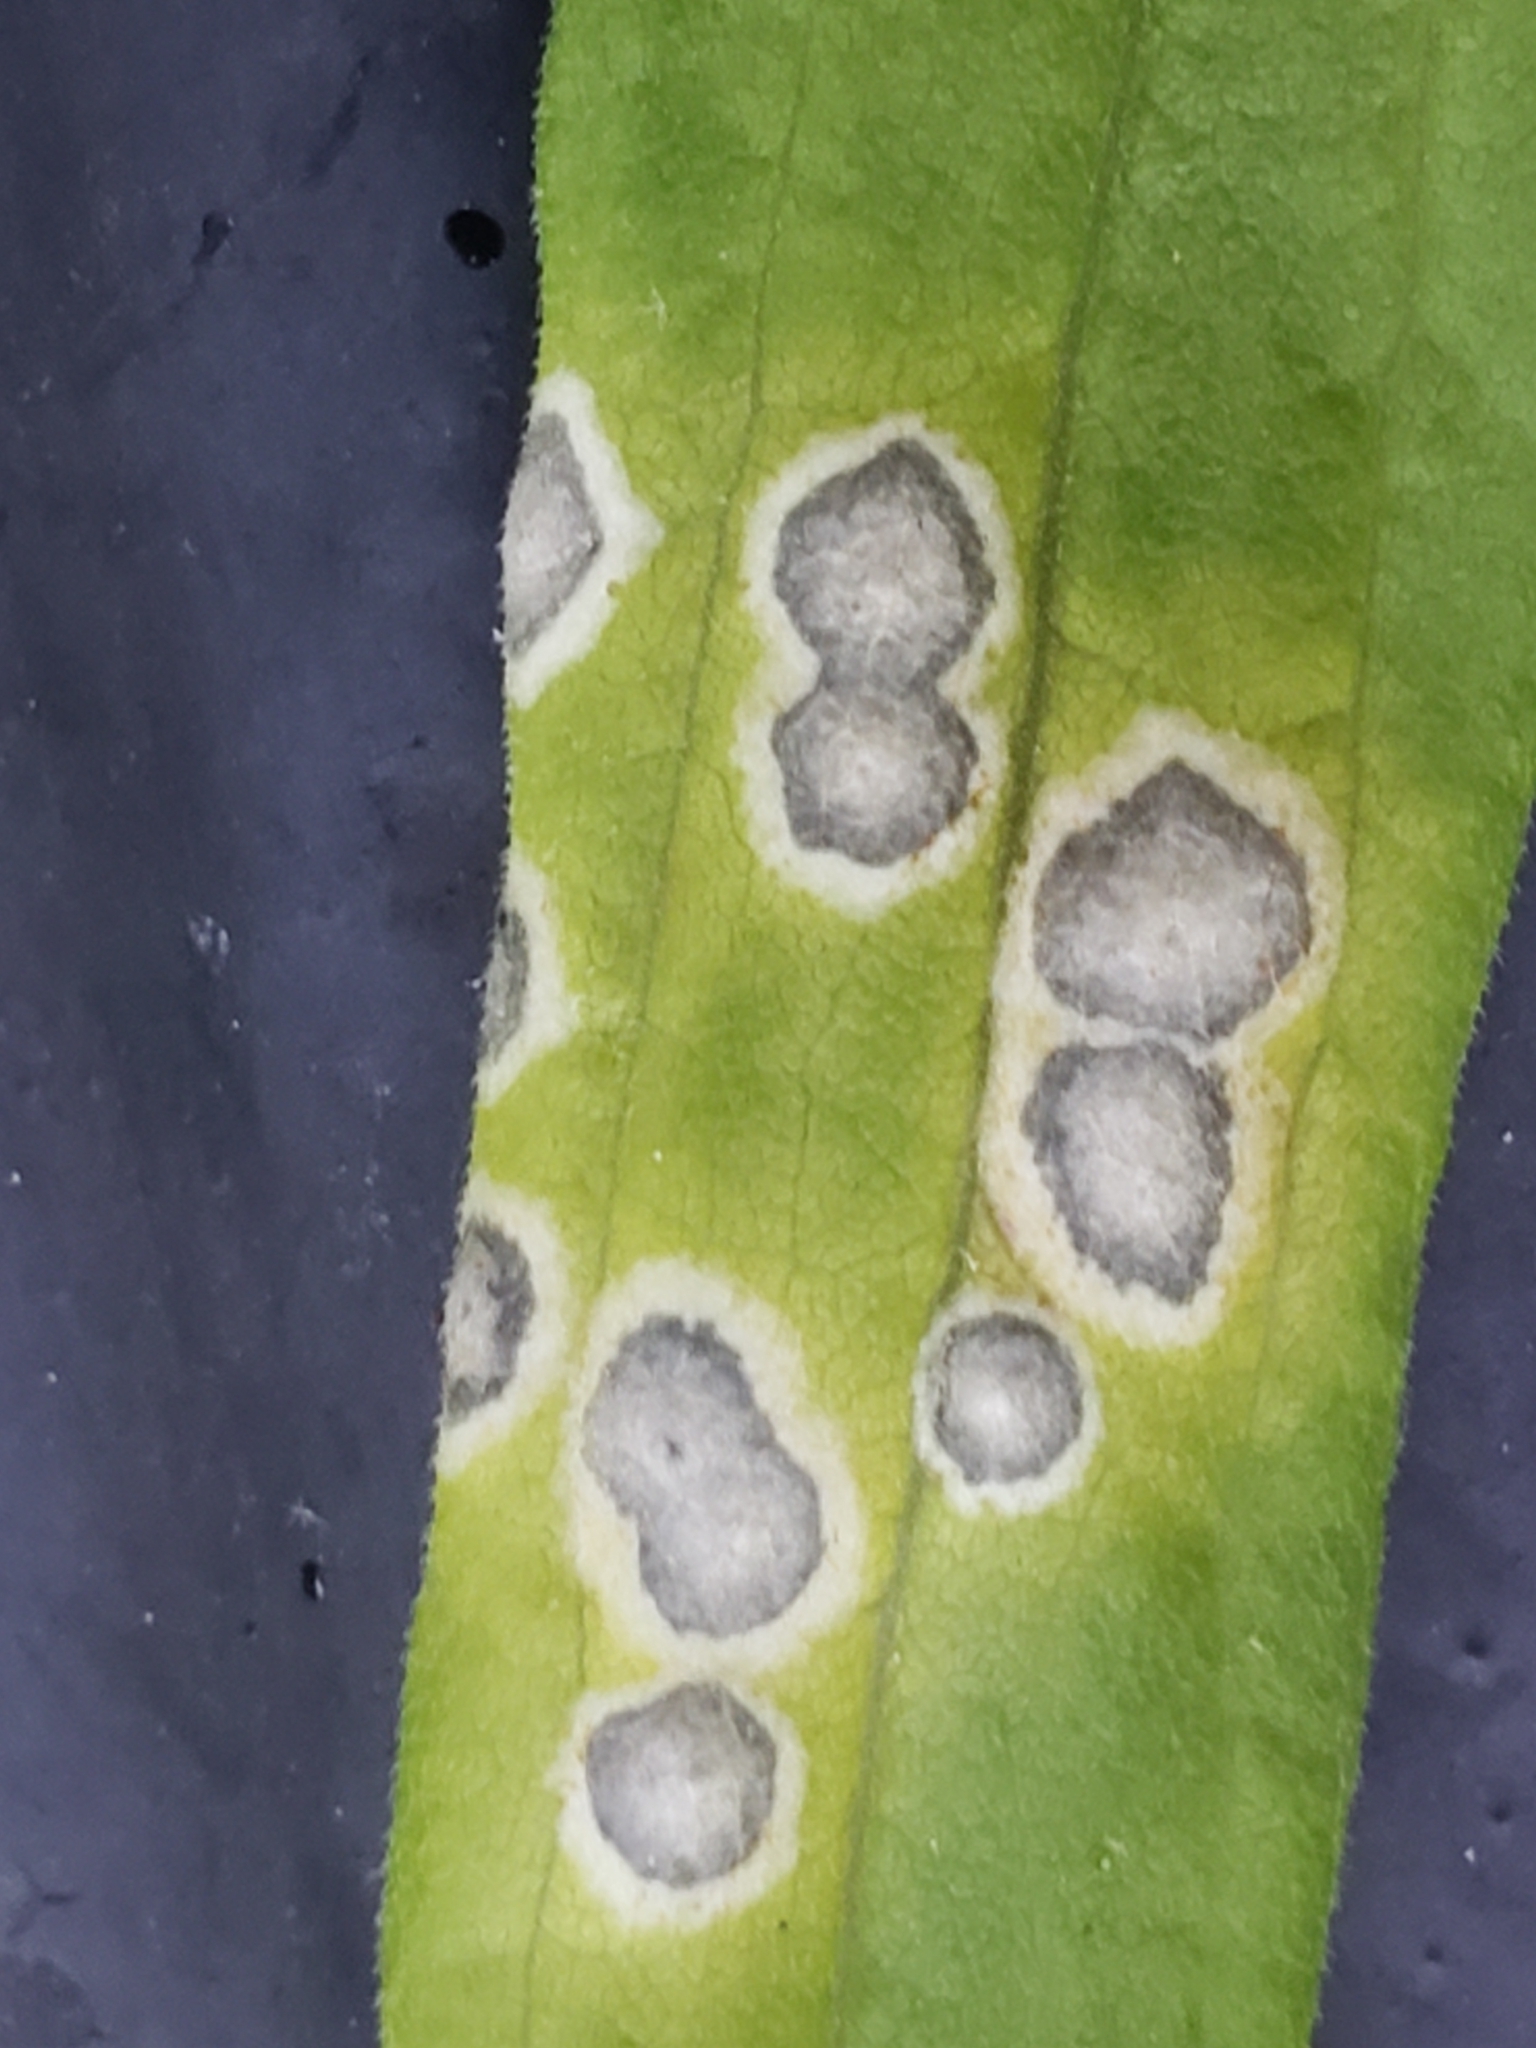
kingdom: Animalia
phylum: Arthropoda
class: Insecta
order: Diptera
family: Cecidomyiidae
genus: Asteromyia
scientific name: Asteromyia carbonifera
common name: Carbonifera goldenrod gall midge
